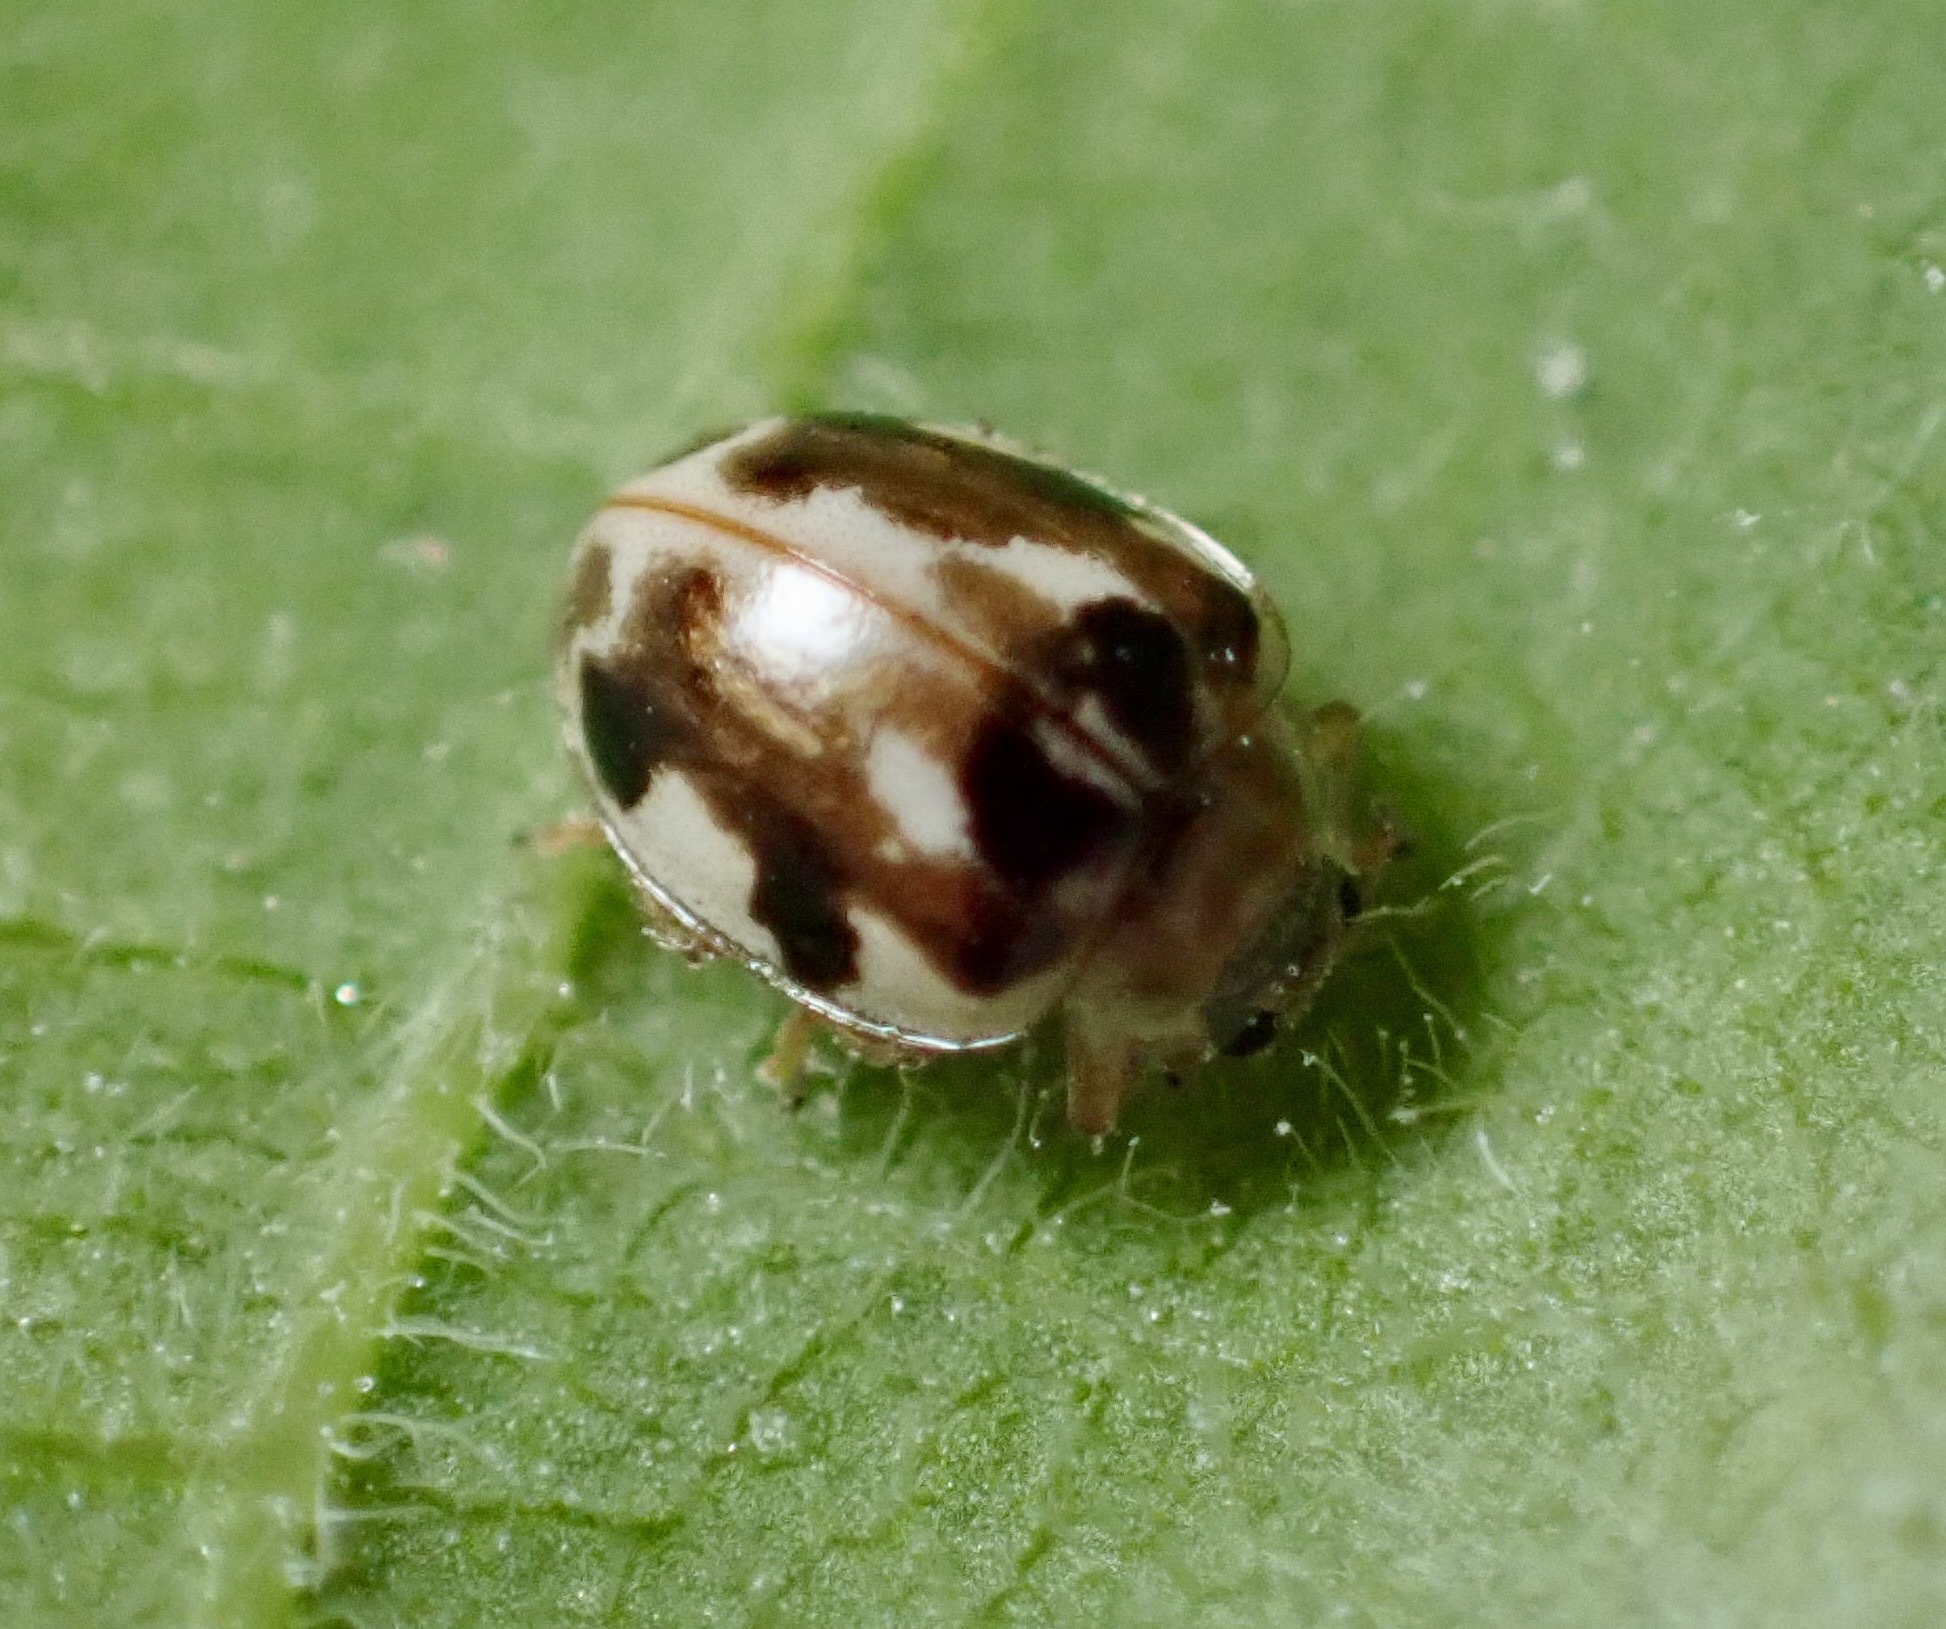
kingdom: Animalia
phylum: Arthropoda
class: Insecta
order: Coleoptera
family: Coccinellidae
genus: Psyllobora
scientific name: Psyllobora vigintimaculata
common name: Ladybird beetle
